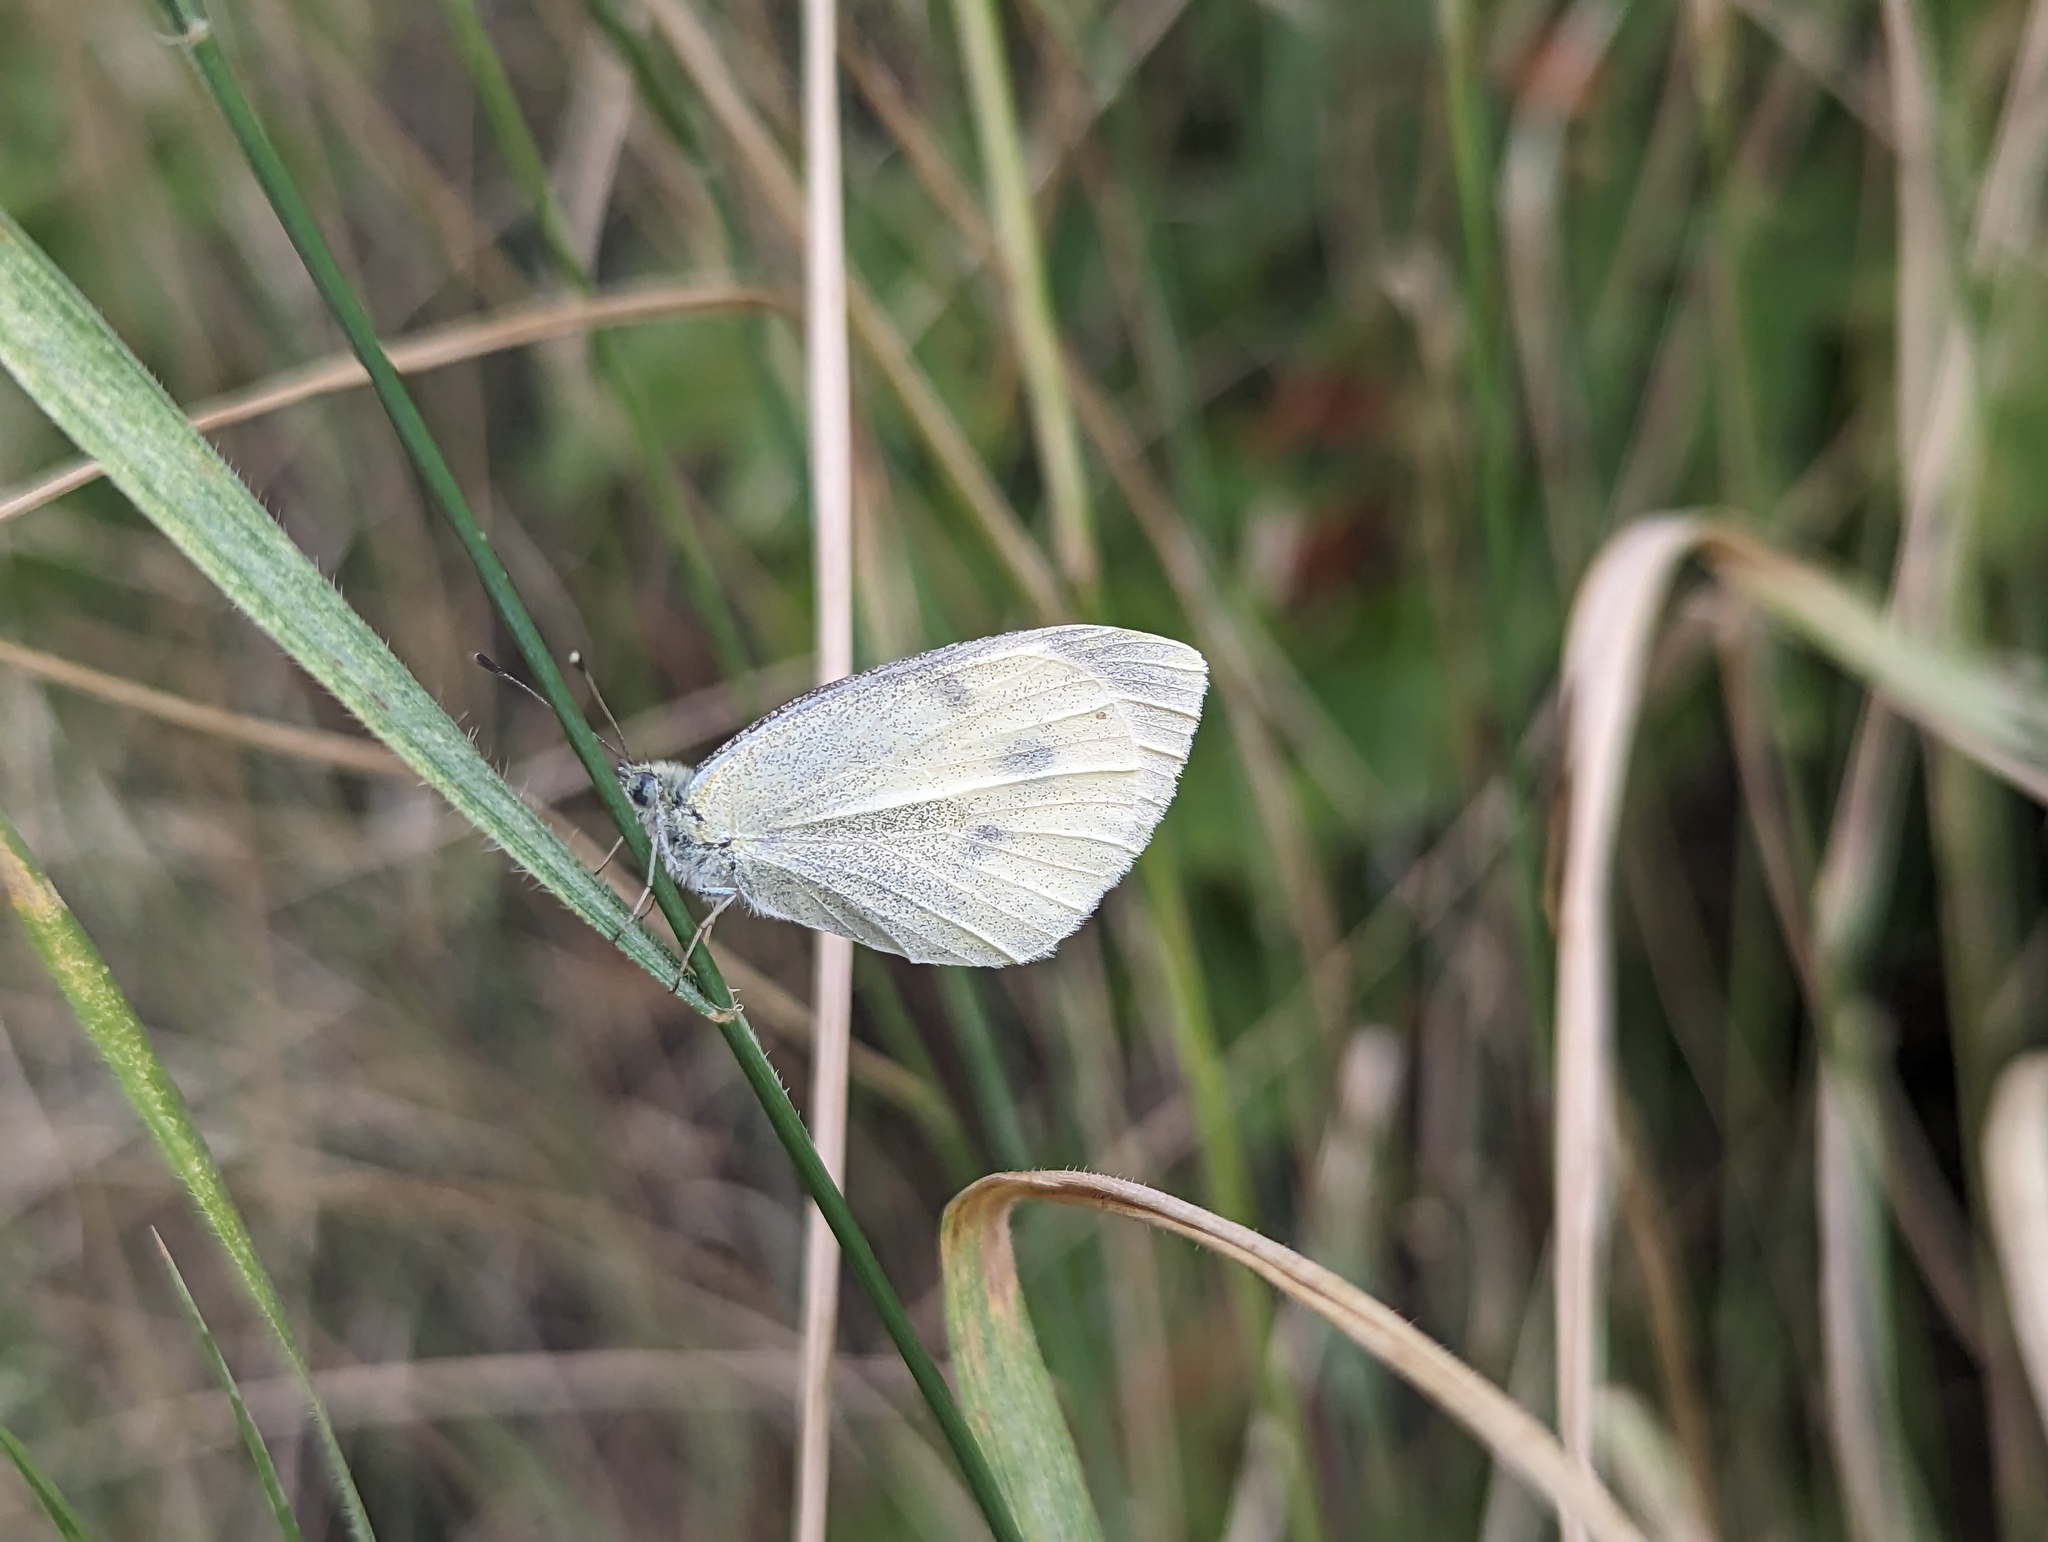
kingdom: Animalia
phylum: Arthropoda
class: Insecta
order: Lepidoptera
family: Pieridae
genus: Pieris
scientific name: Pieris rapae
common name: Small white
